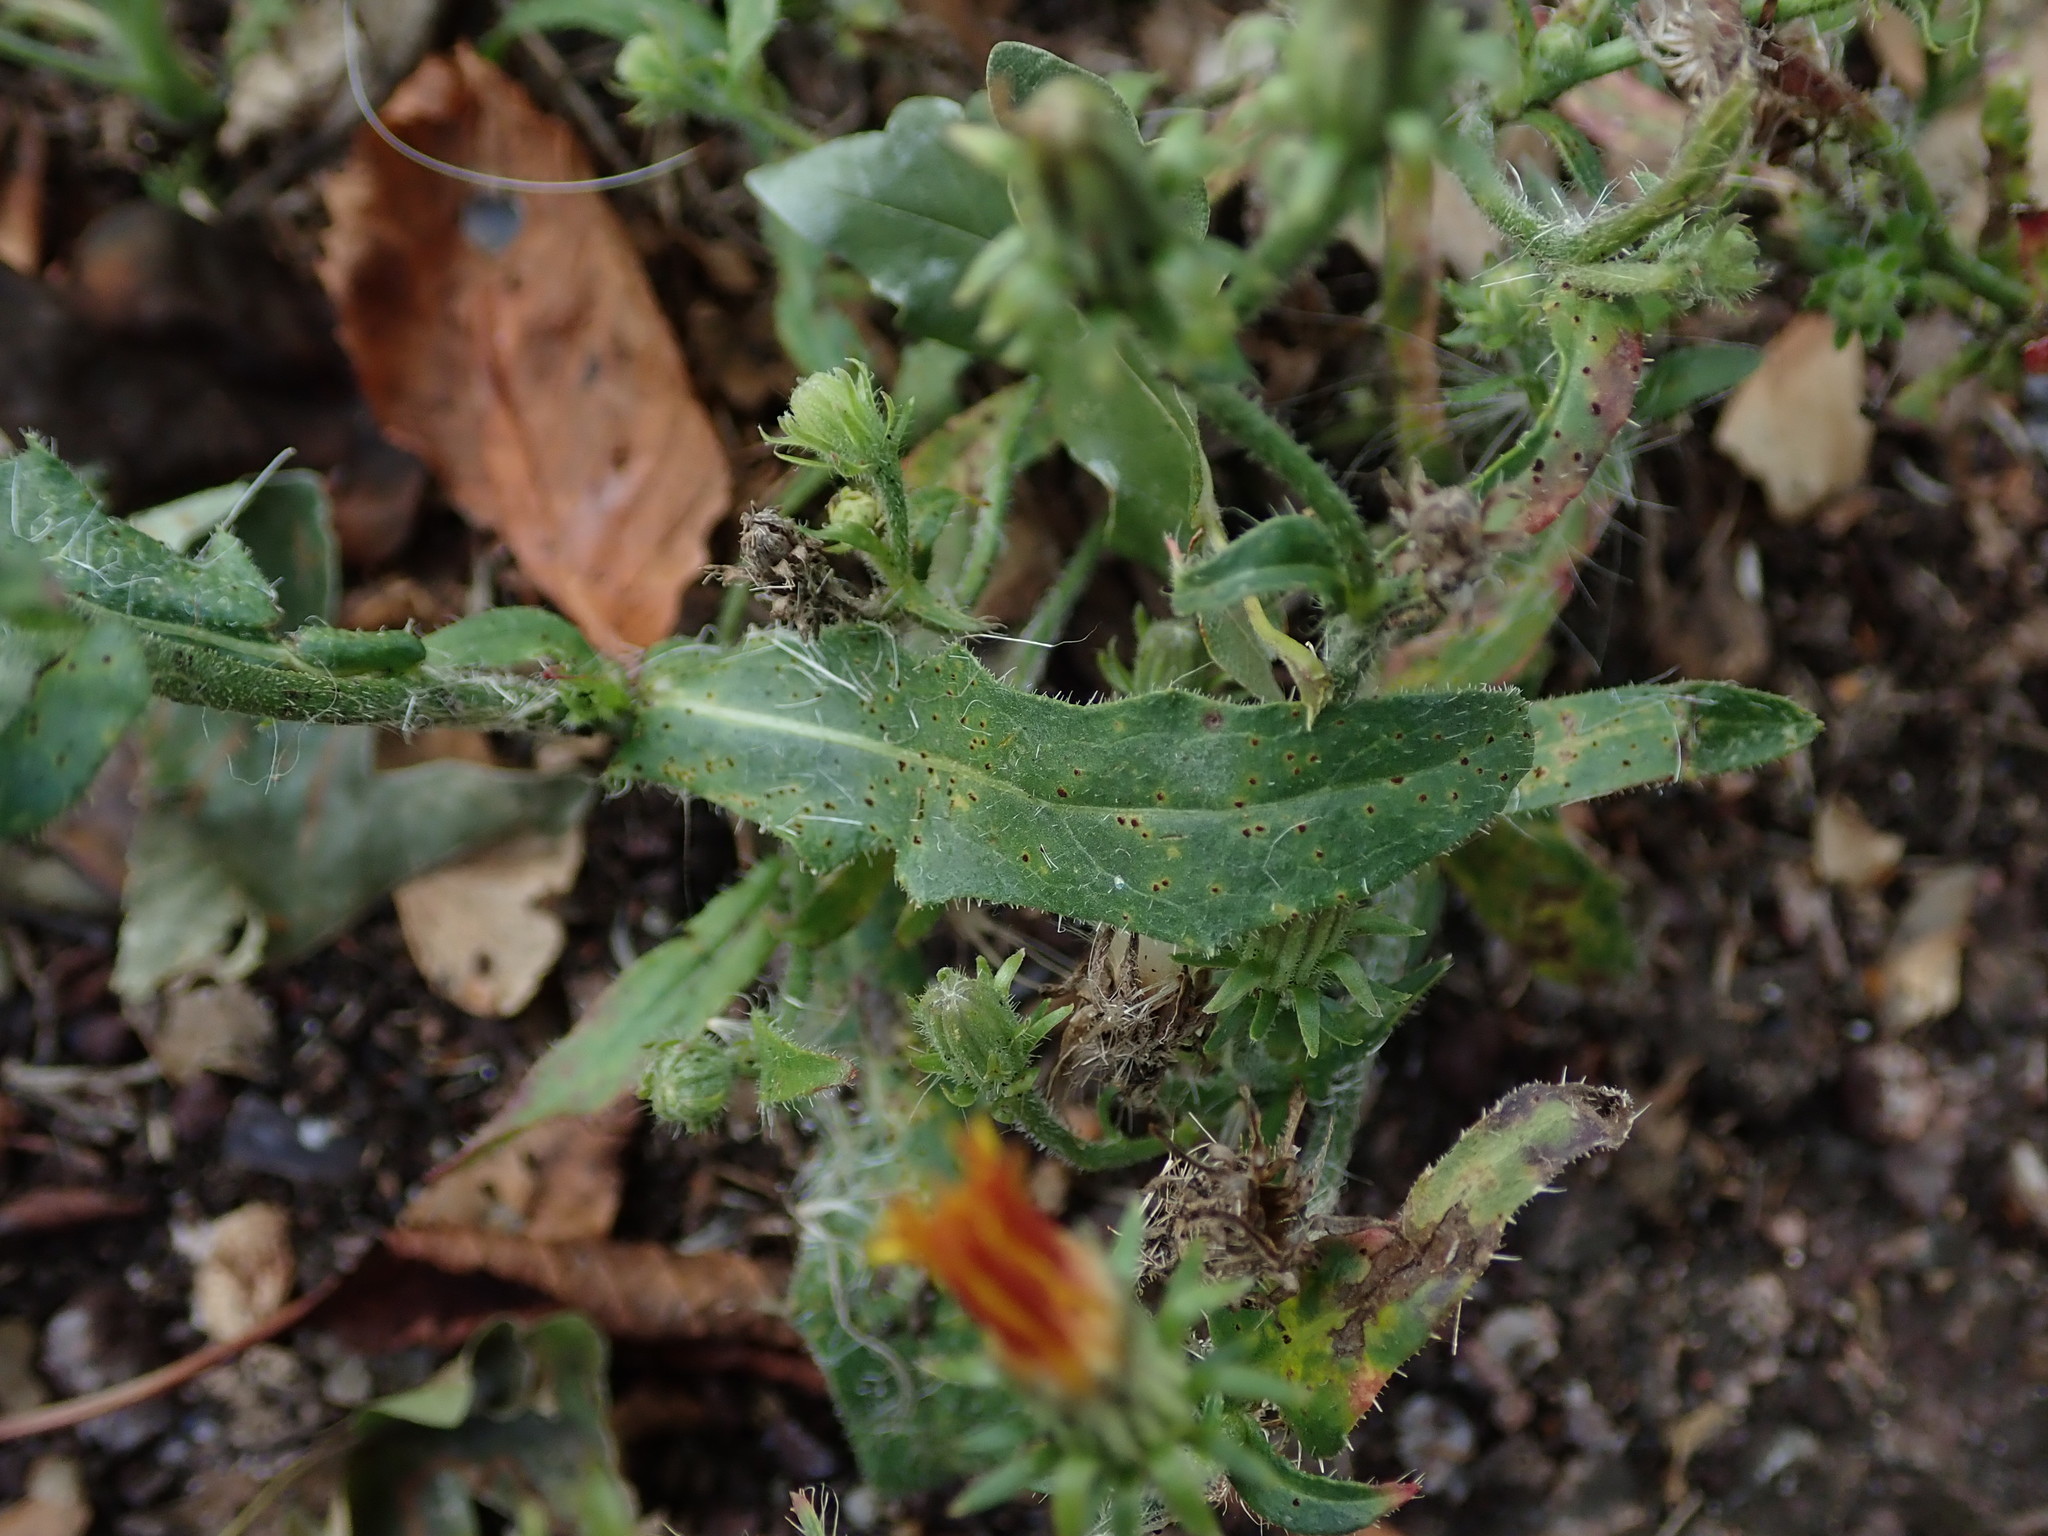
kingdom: Plantae
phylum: Tracheophyta
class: Magnoliopsida
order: Asterales
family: Asteraceae
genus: Picris
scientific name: Picris hieracioides
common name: Hawkweed oxtongue
